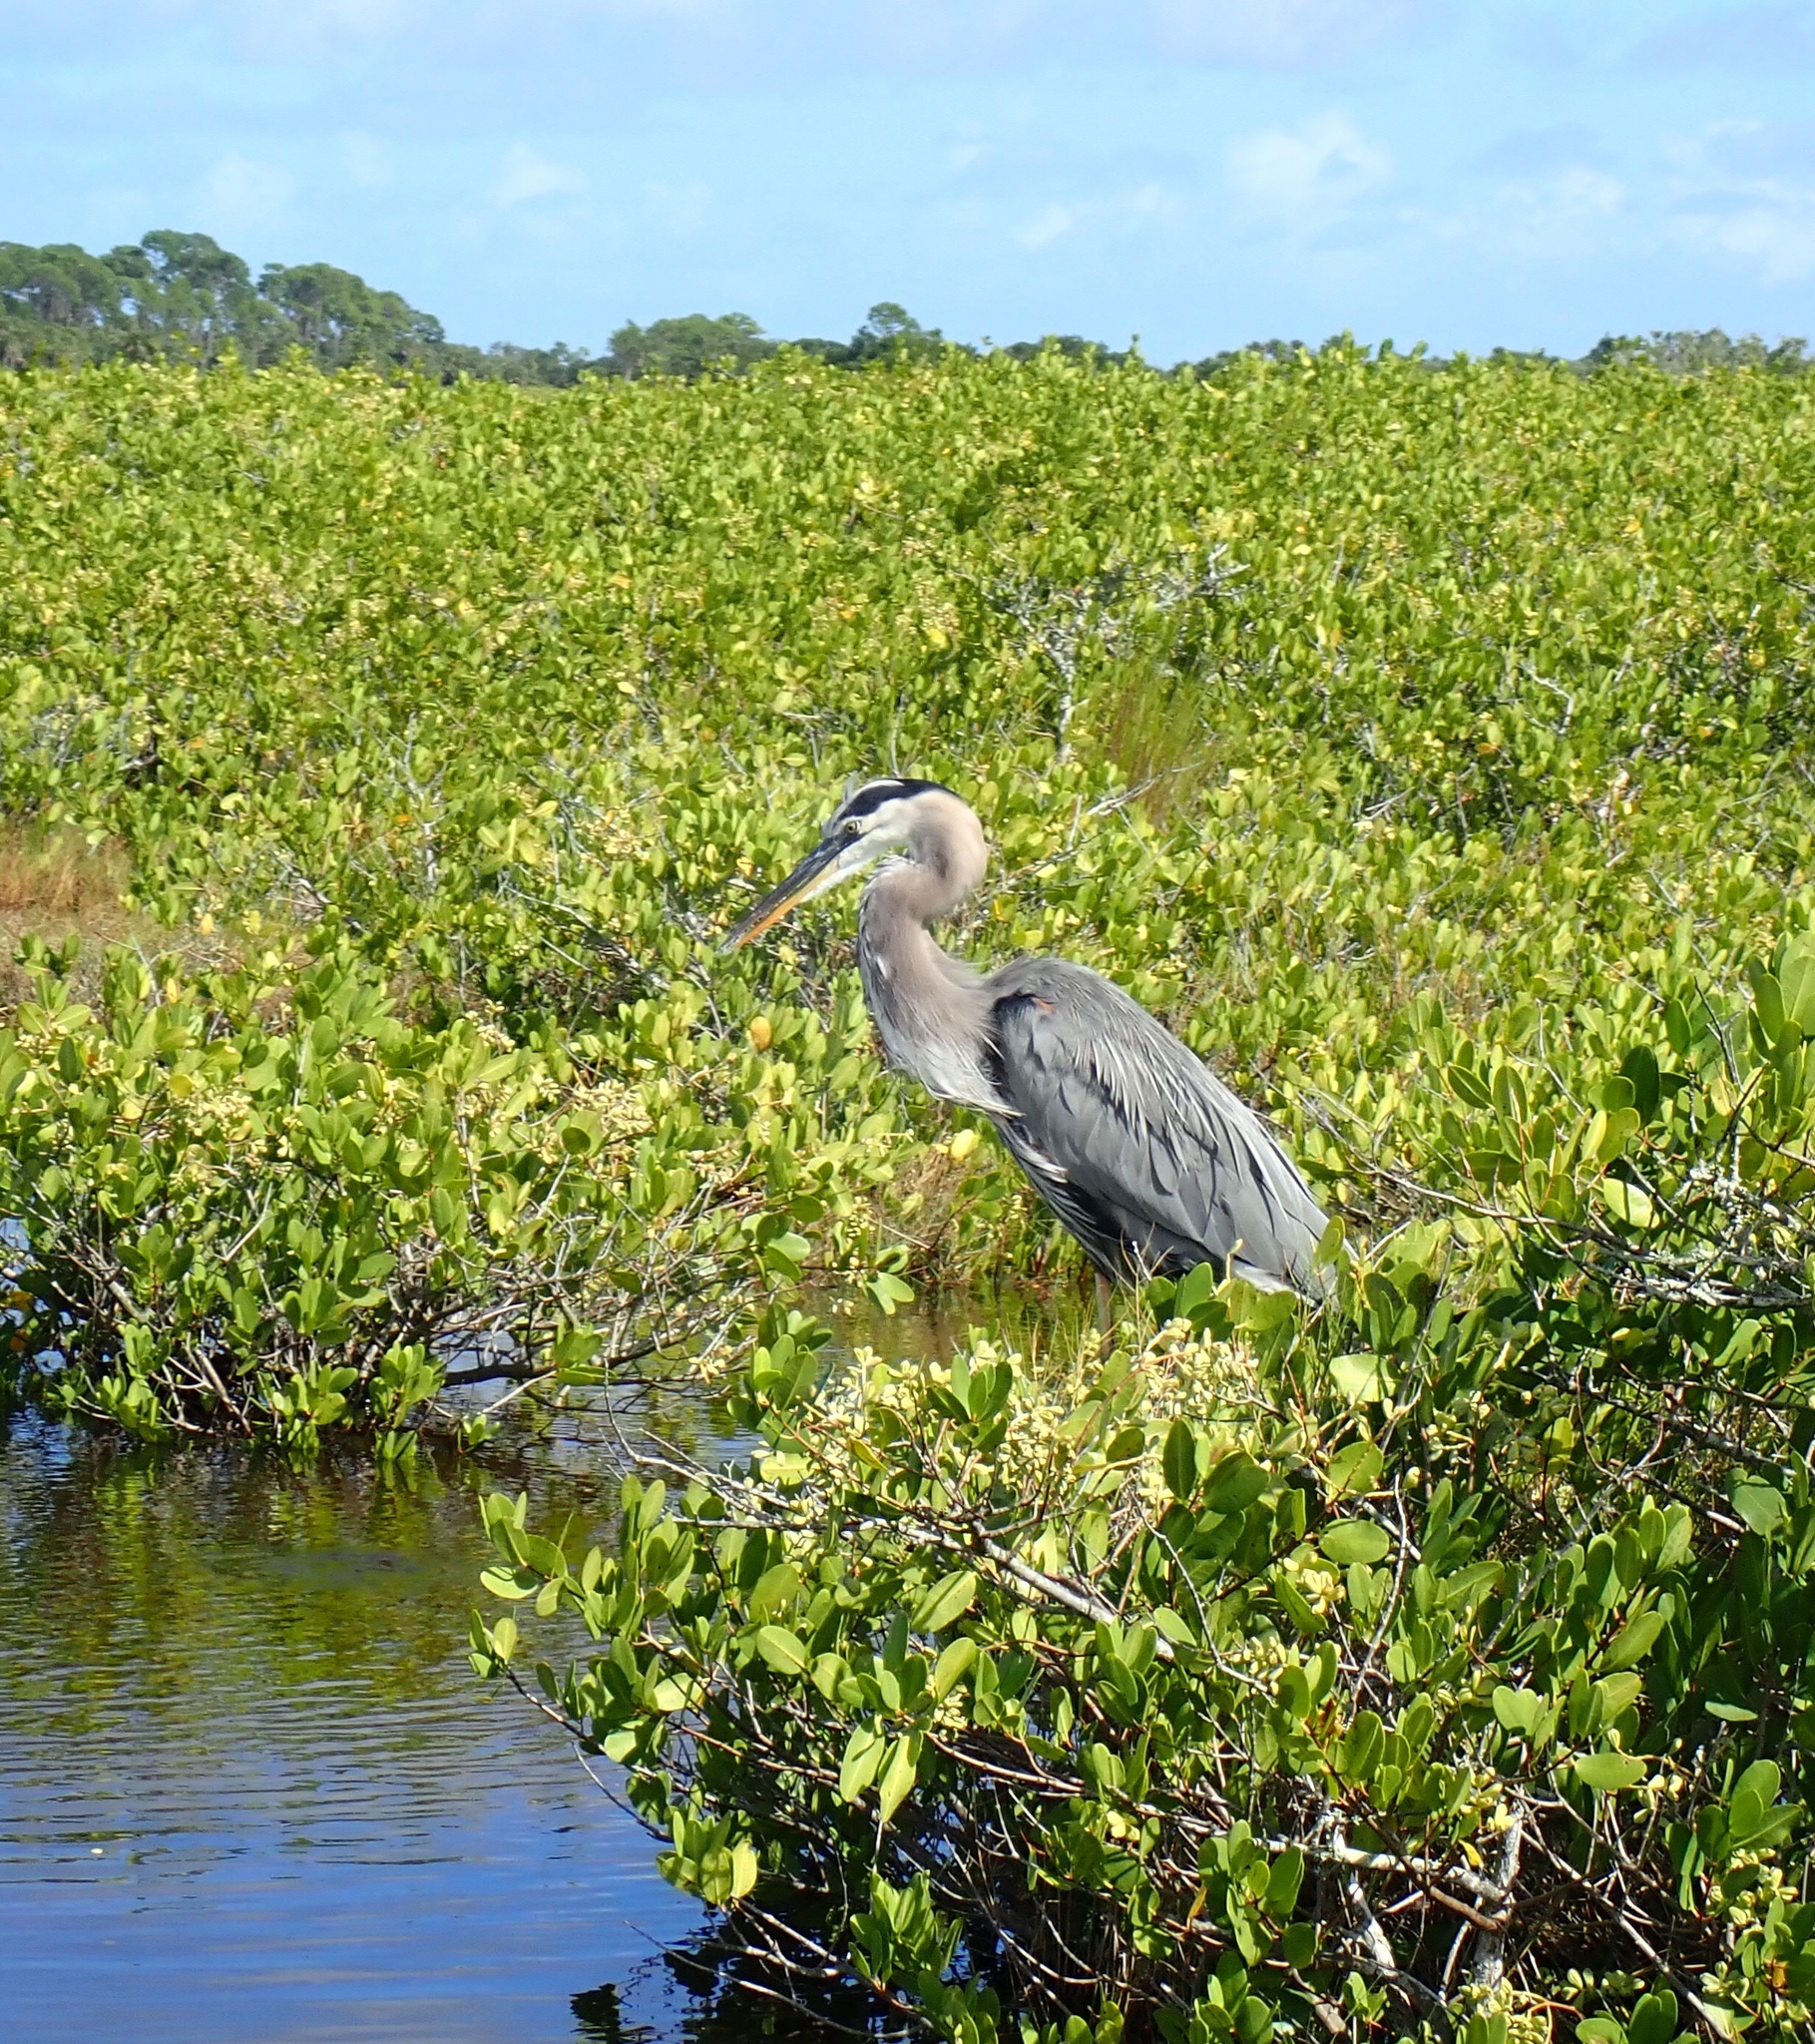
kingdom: Animalia
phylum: Chordata
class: Aves
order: Pelecaniformes
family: Ardeidae
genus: Ardea
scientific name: Ardea herodias
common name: Great blue heron
